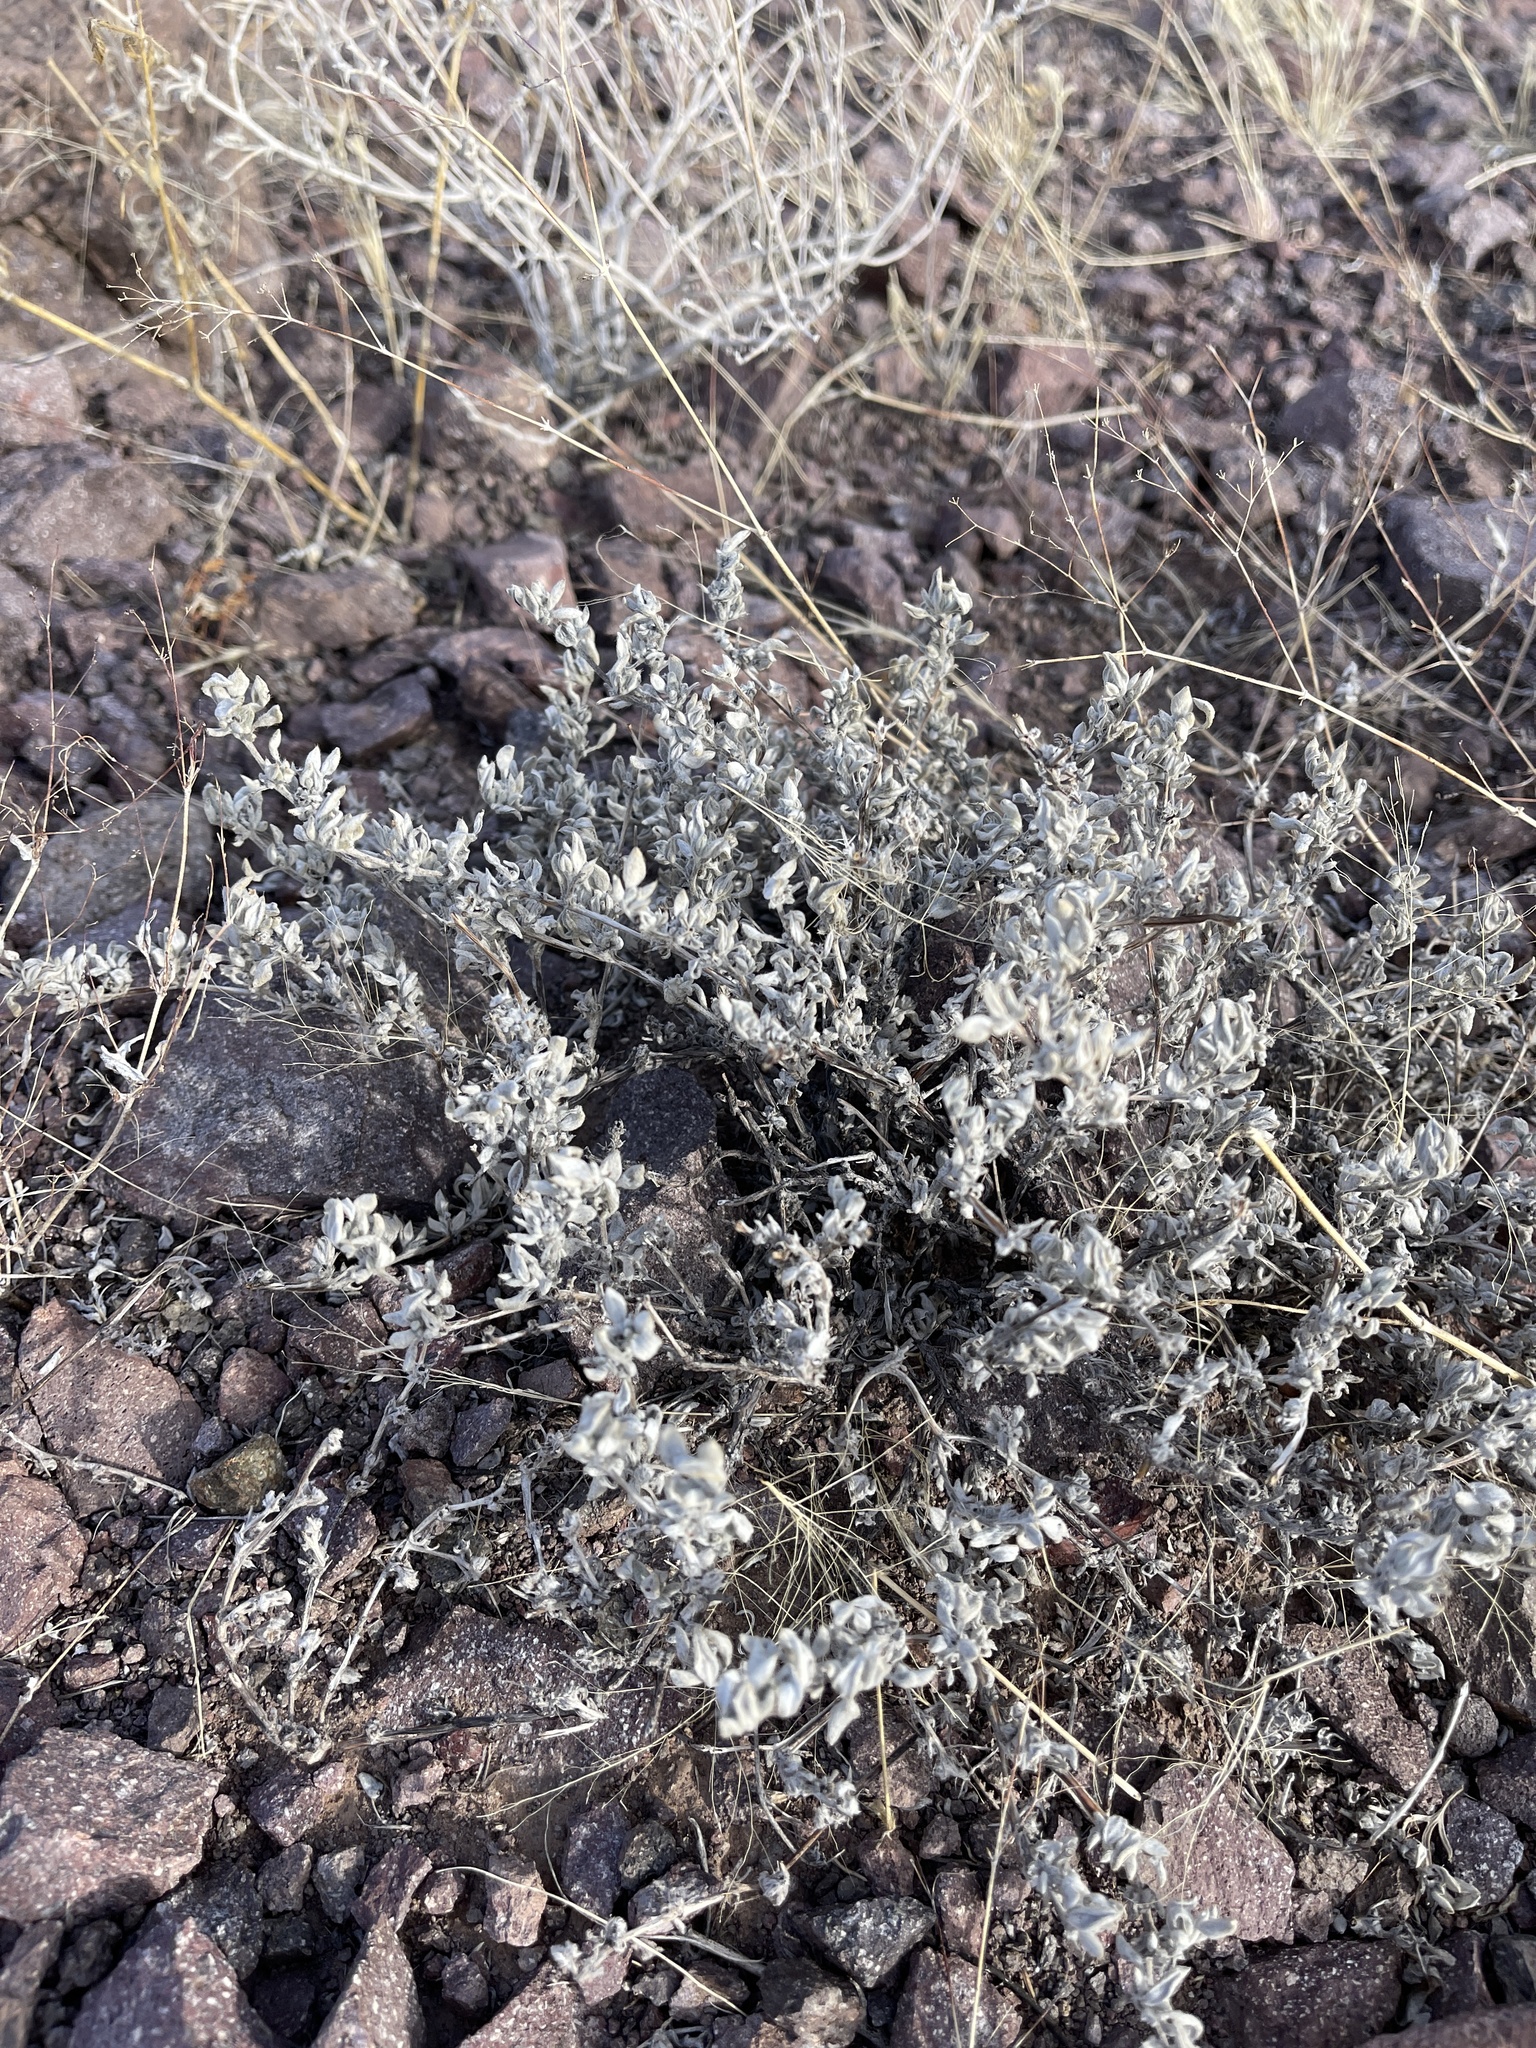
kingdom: Plantae
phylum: Tracheophyta
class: Magnoliopsida
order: Boraginales
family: Ehretiaceae
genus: Tiquilia
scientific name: Tiquilia canescens
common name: Hairy tiquilia
